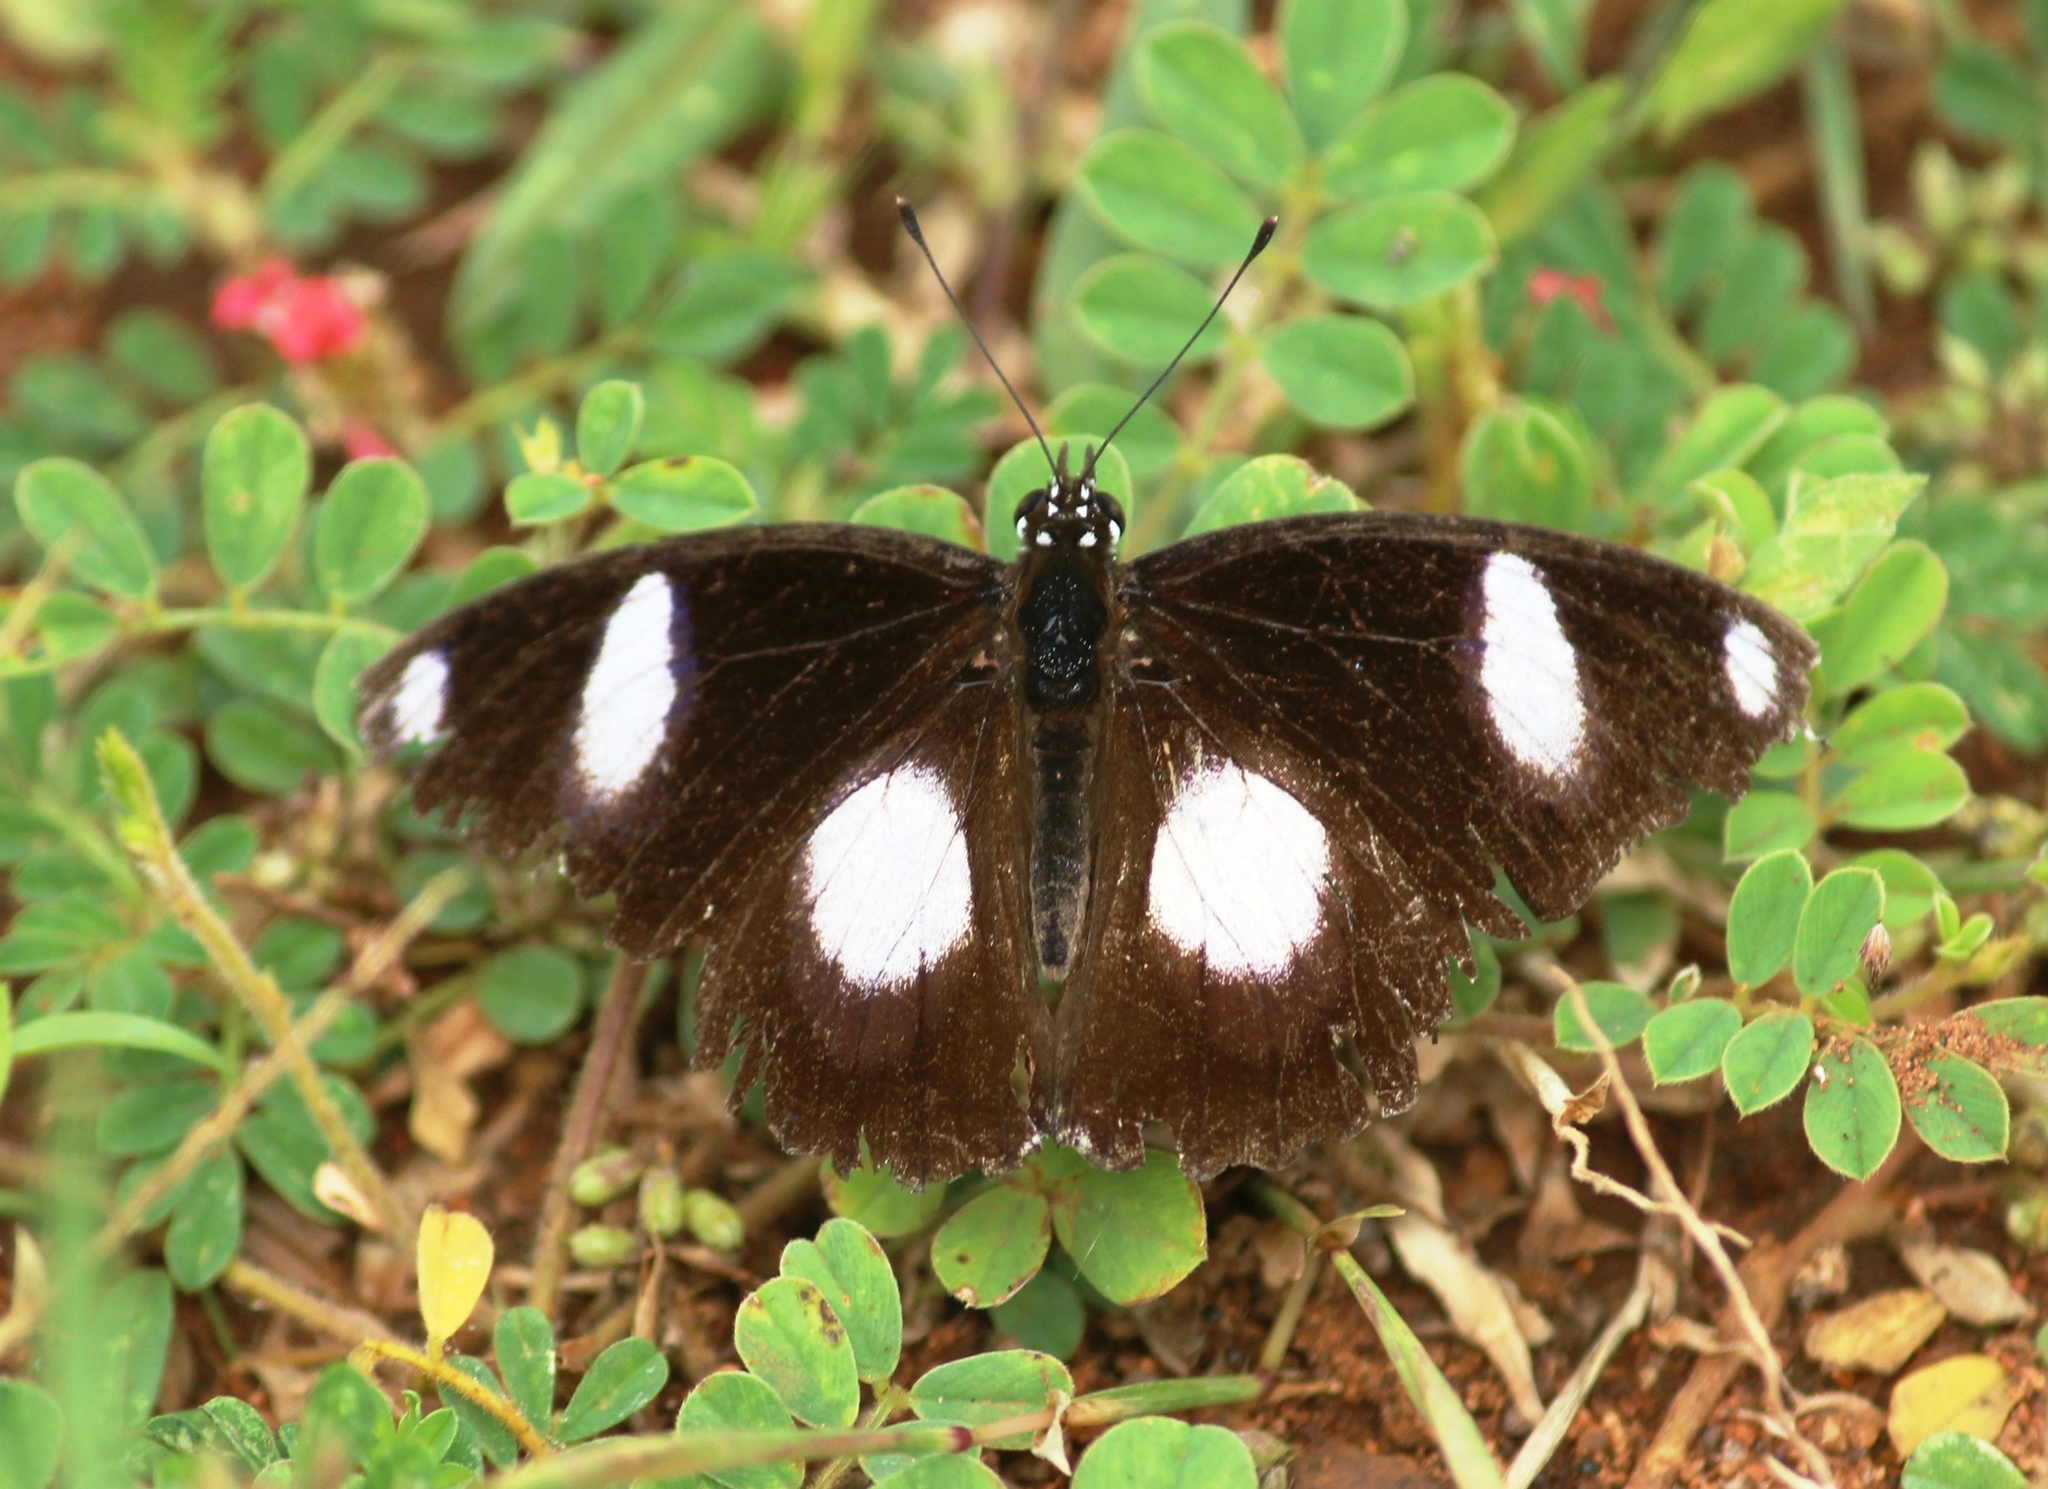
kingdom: Animalia
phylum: Arthropoda
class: Insecta
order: Lepidoptera
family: Nymphalidae
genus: Hypolimnas
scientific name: Hypolimnas misippus
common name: False plain tiger
